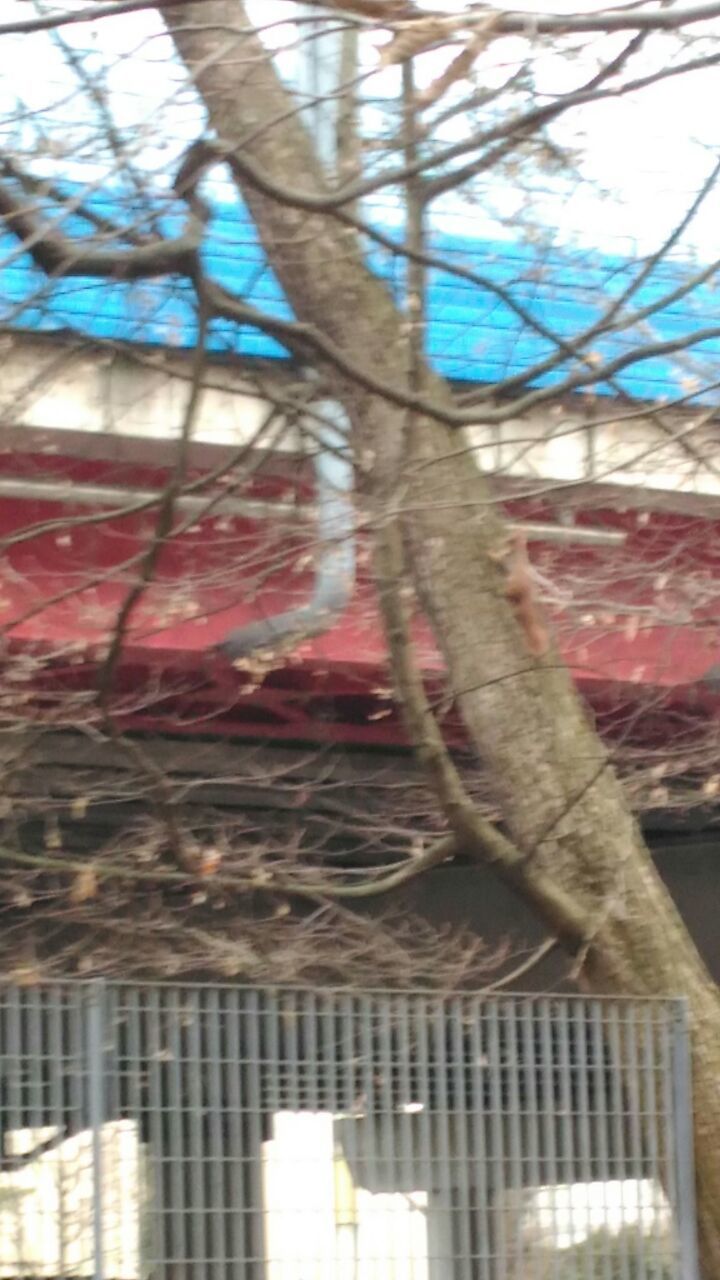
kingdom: Animalia
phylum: Chordata
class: Mammalia
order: Rodentia
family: Sciuridae
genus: Sciurus
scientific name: Sciurus vulgaris
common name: Eurasian red squirrel
